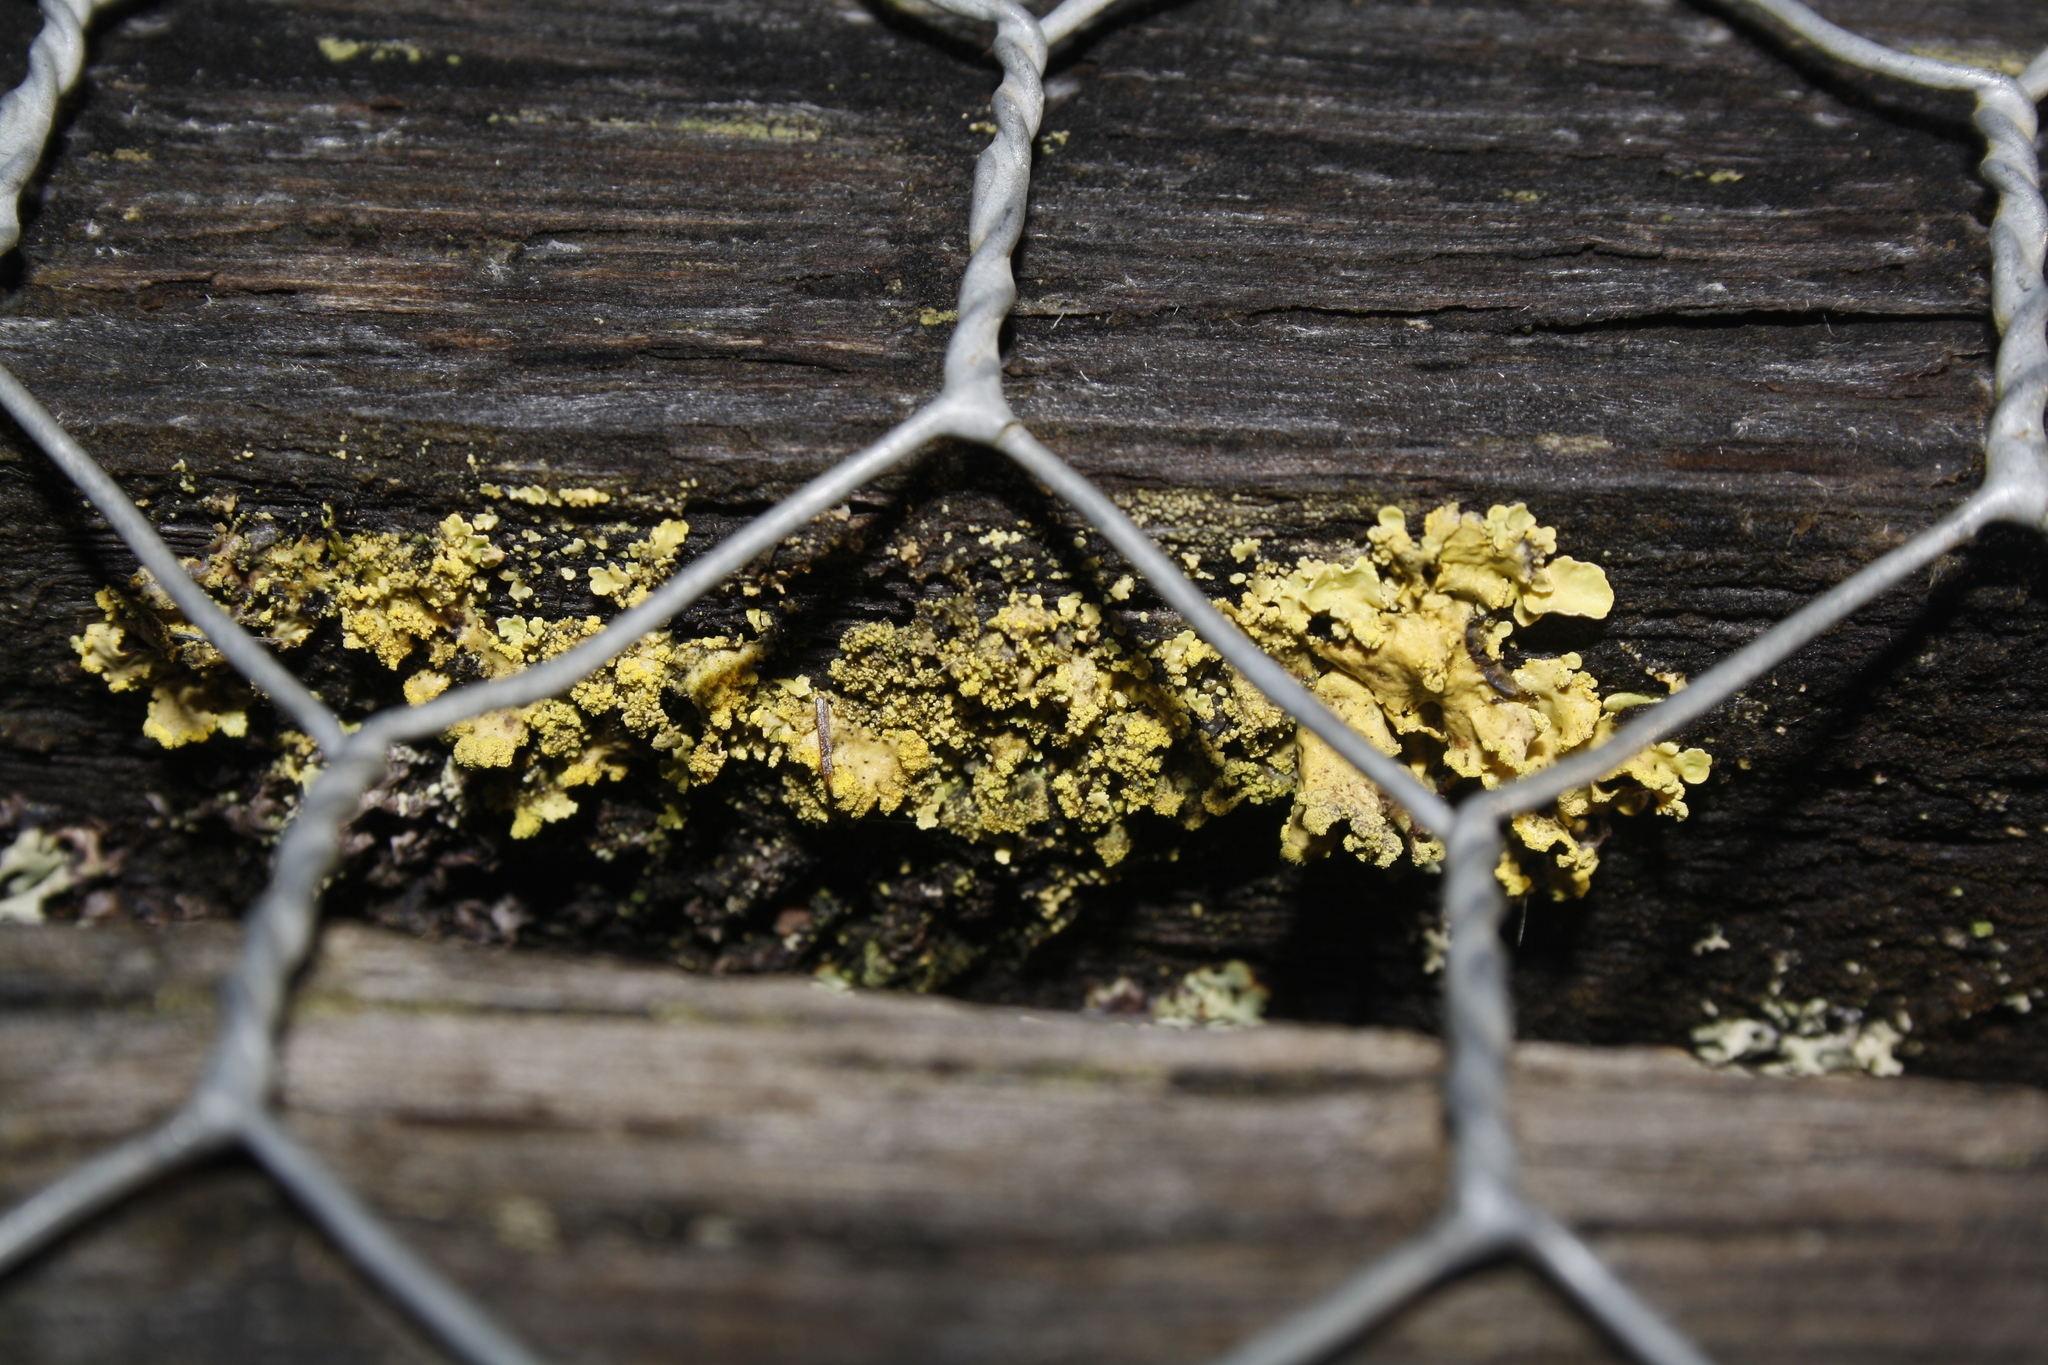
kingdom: Fungi
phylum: Ascomycota
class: Lecanoromycetes
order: Lecanorales
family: Parmeliaceae
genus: Vulpicida
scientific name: Vulpicida pinastri
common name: Powdered sunshine lichen
